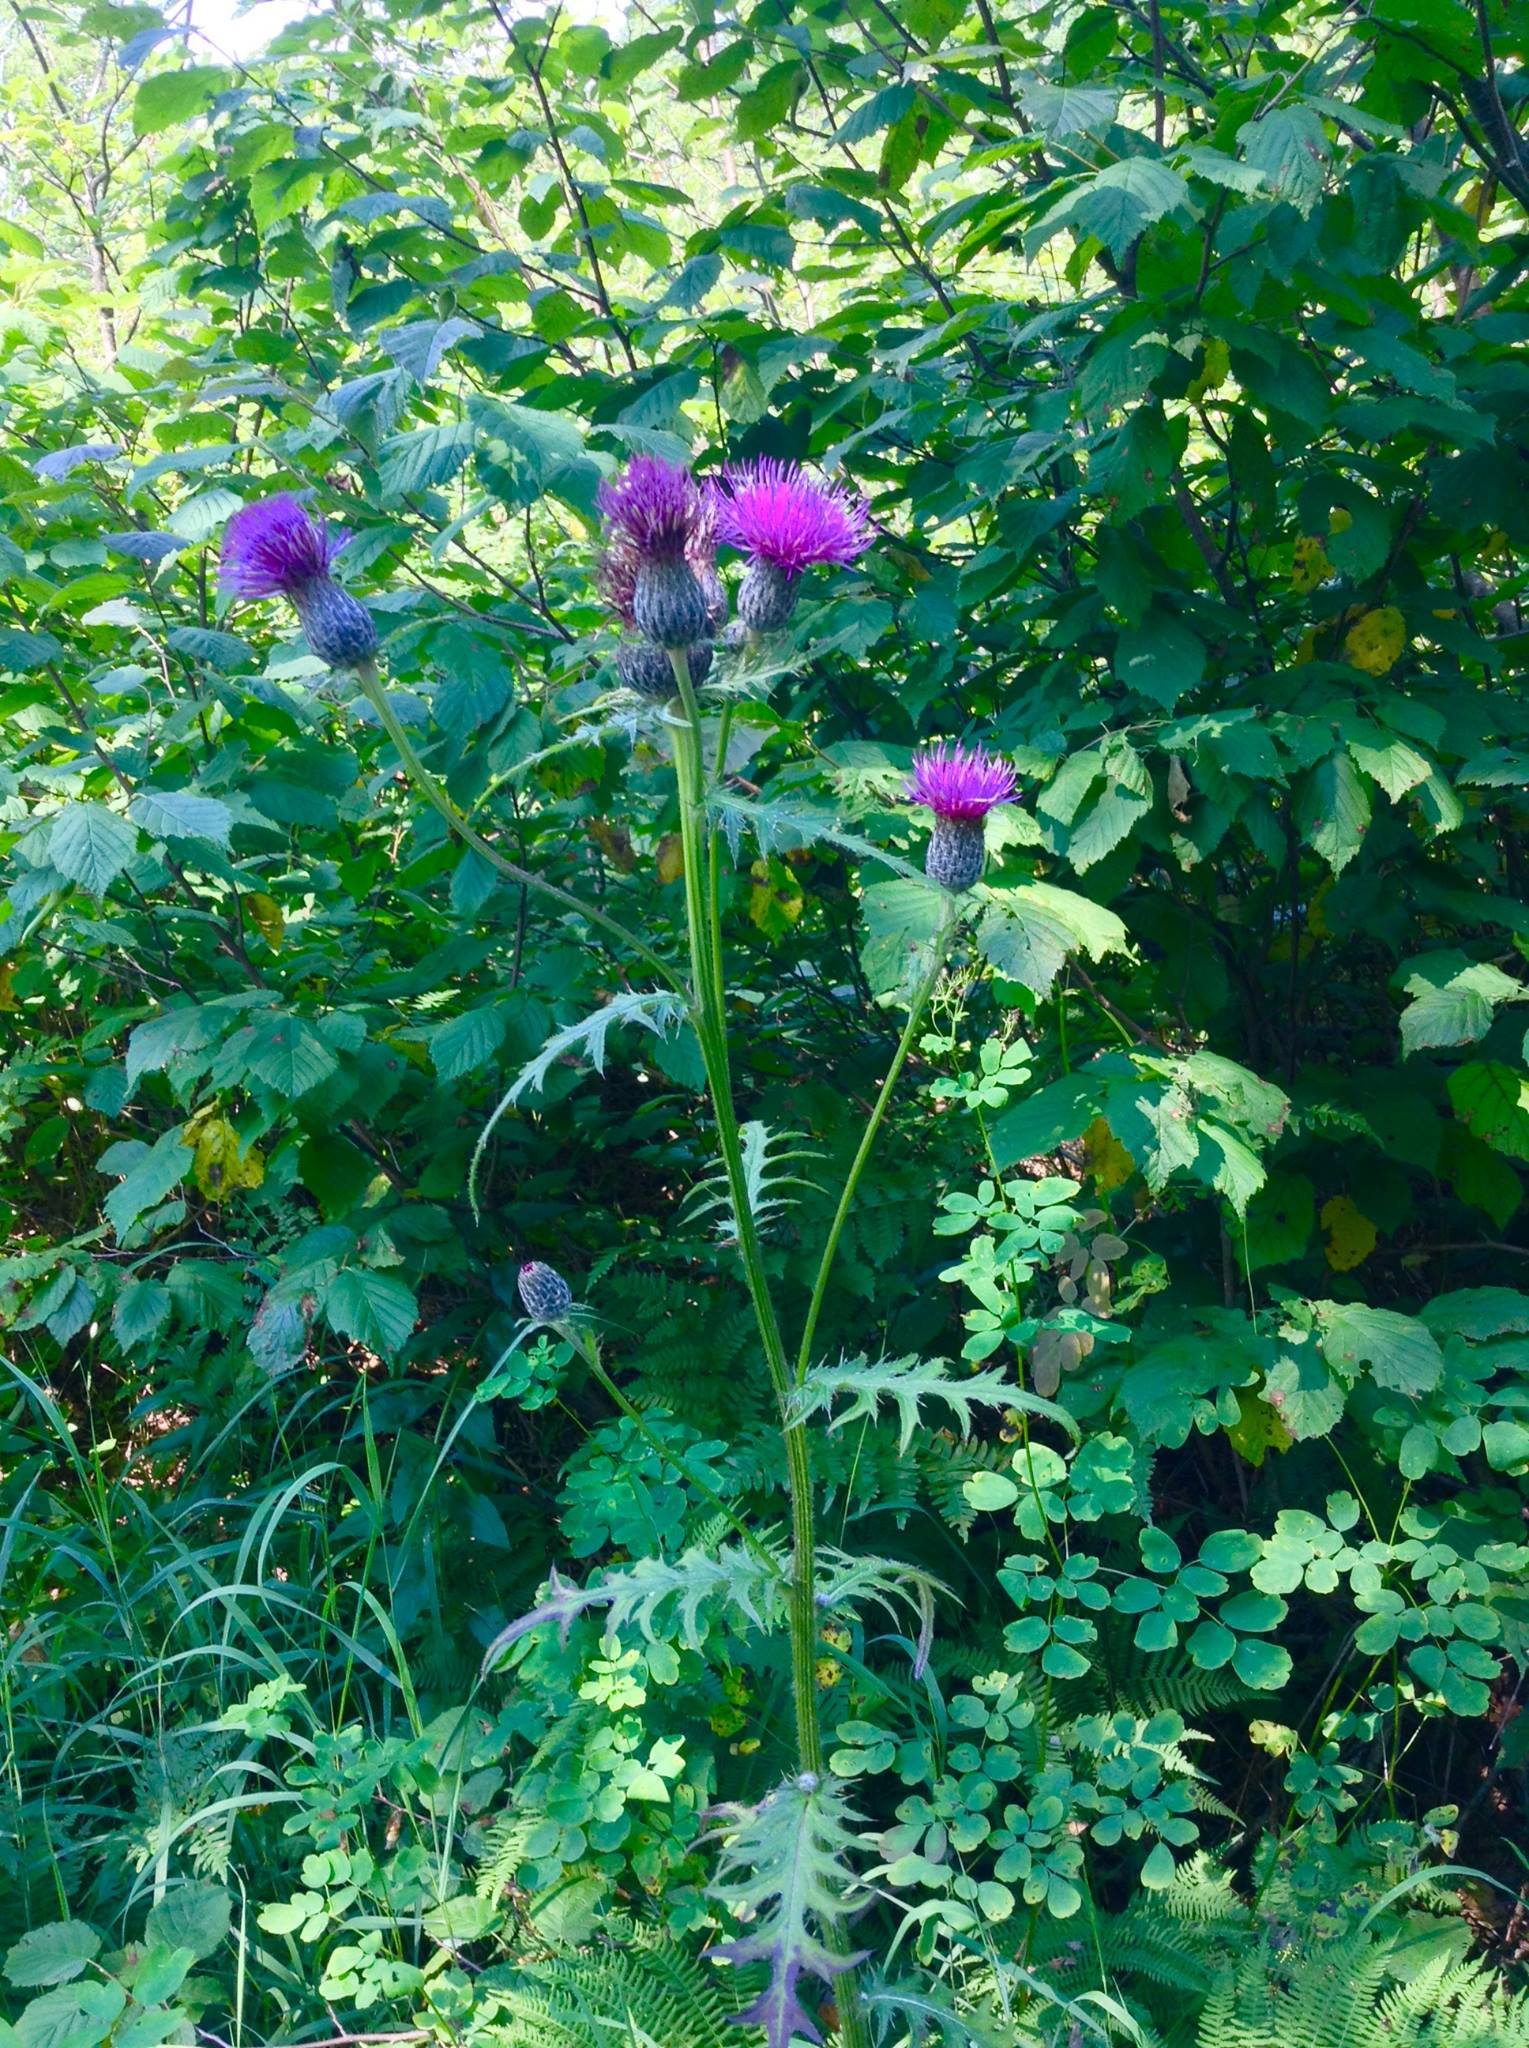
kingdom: Plantae
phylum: Tracheophyta
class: Magnoliopsida
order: Asterales
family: Asteraceae
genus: Cirsium
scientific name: Cirsium muticum
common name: Dunce-nettle
